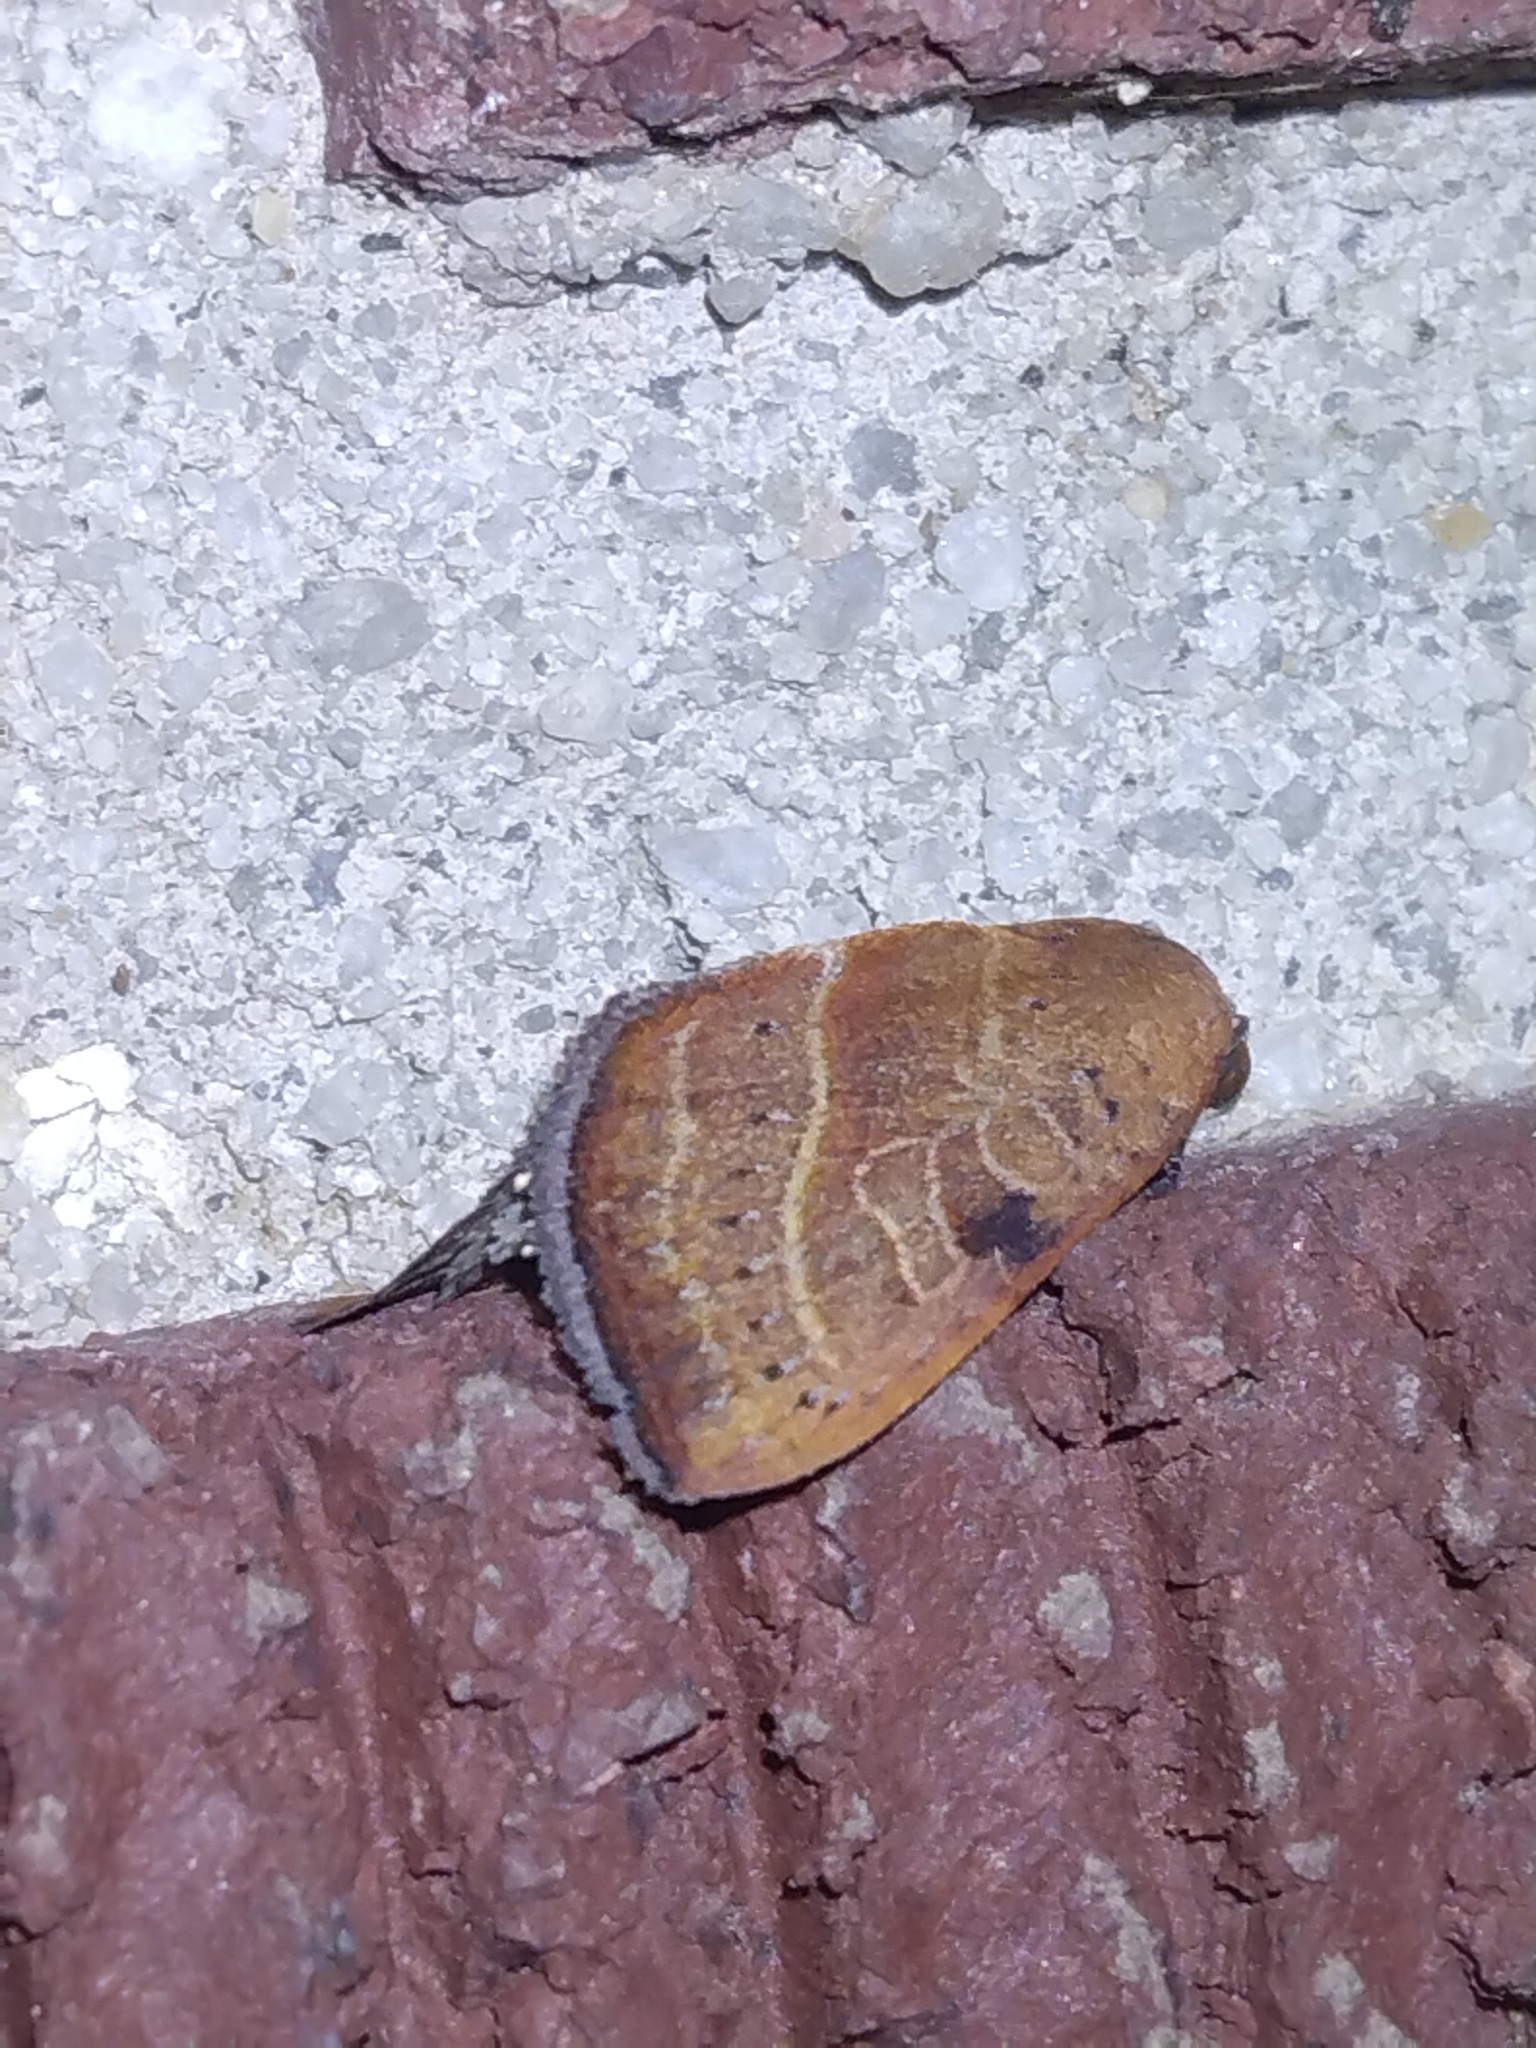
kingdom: Animalia
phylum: Arthropoda
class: Insecta
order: Lepidoptera
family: Noctuidae
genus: Galgula
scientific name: Galgula partita
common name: Wedgeling
